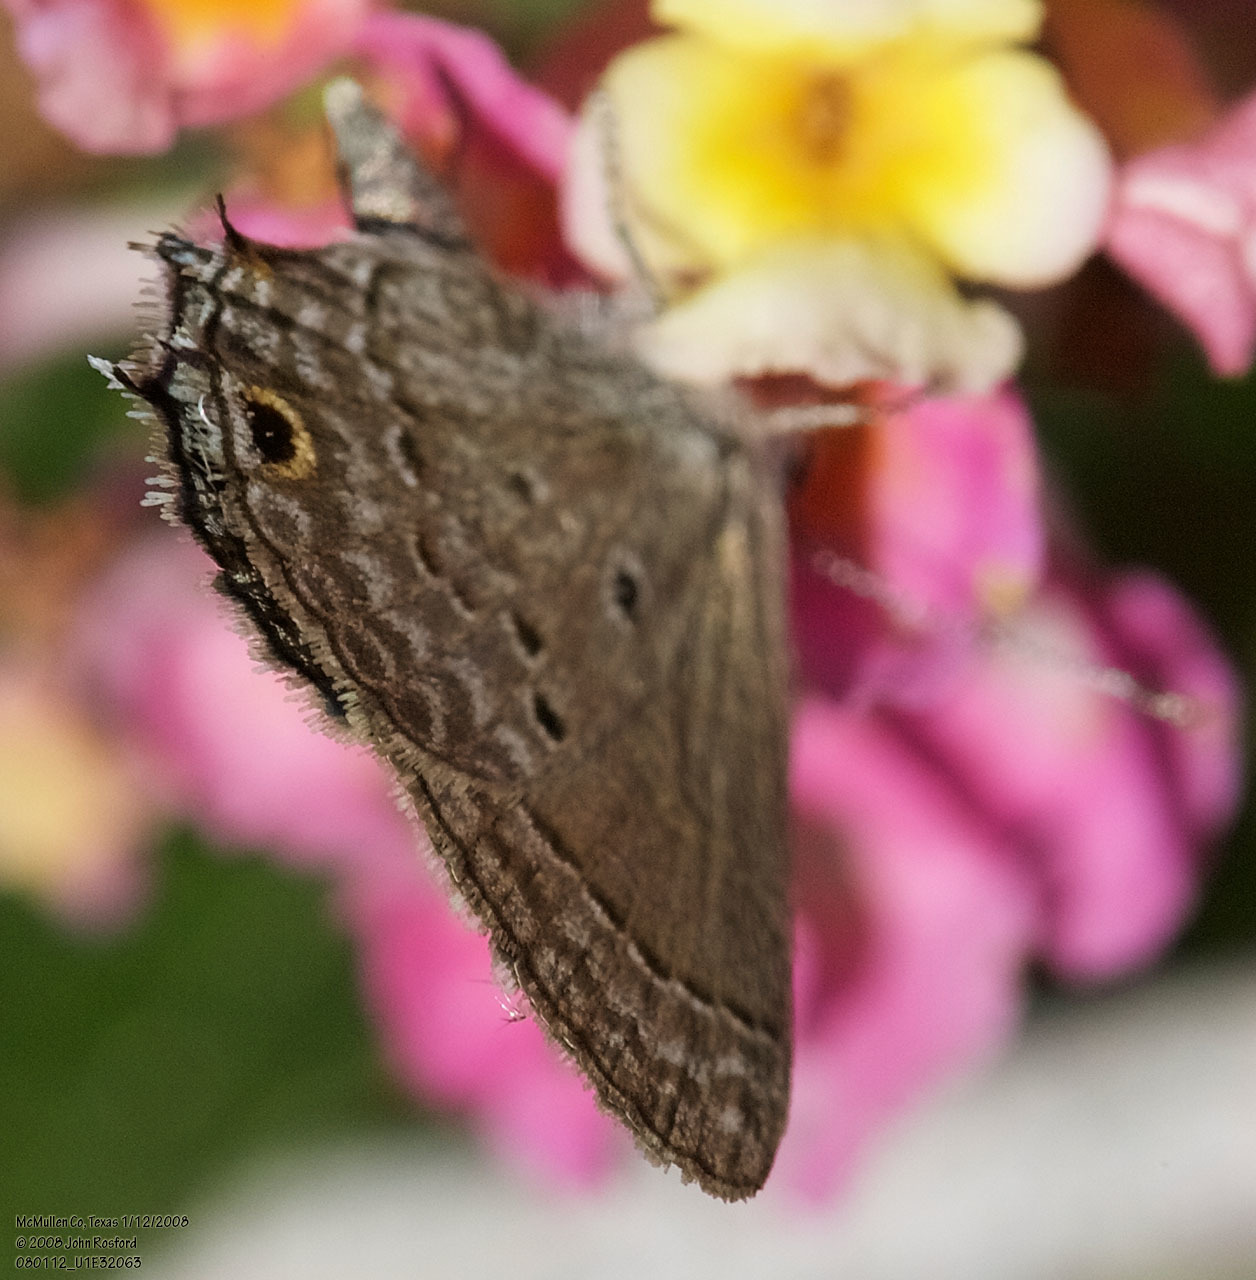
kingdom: Animalia
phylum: Arthropoda
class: Insecta
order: Lepidoptera
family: Lycaenidae
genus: Callicista
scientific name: Callicista columella
